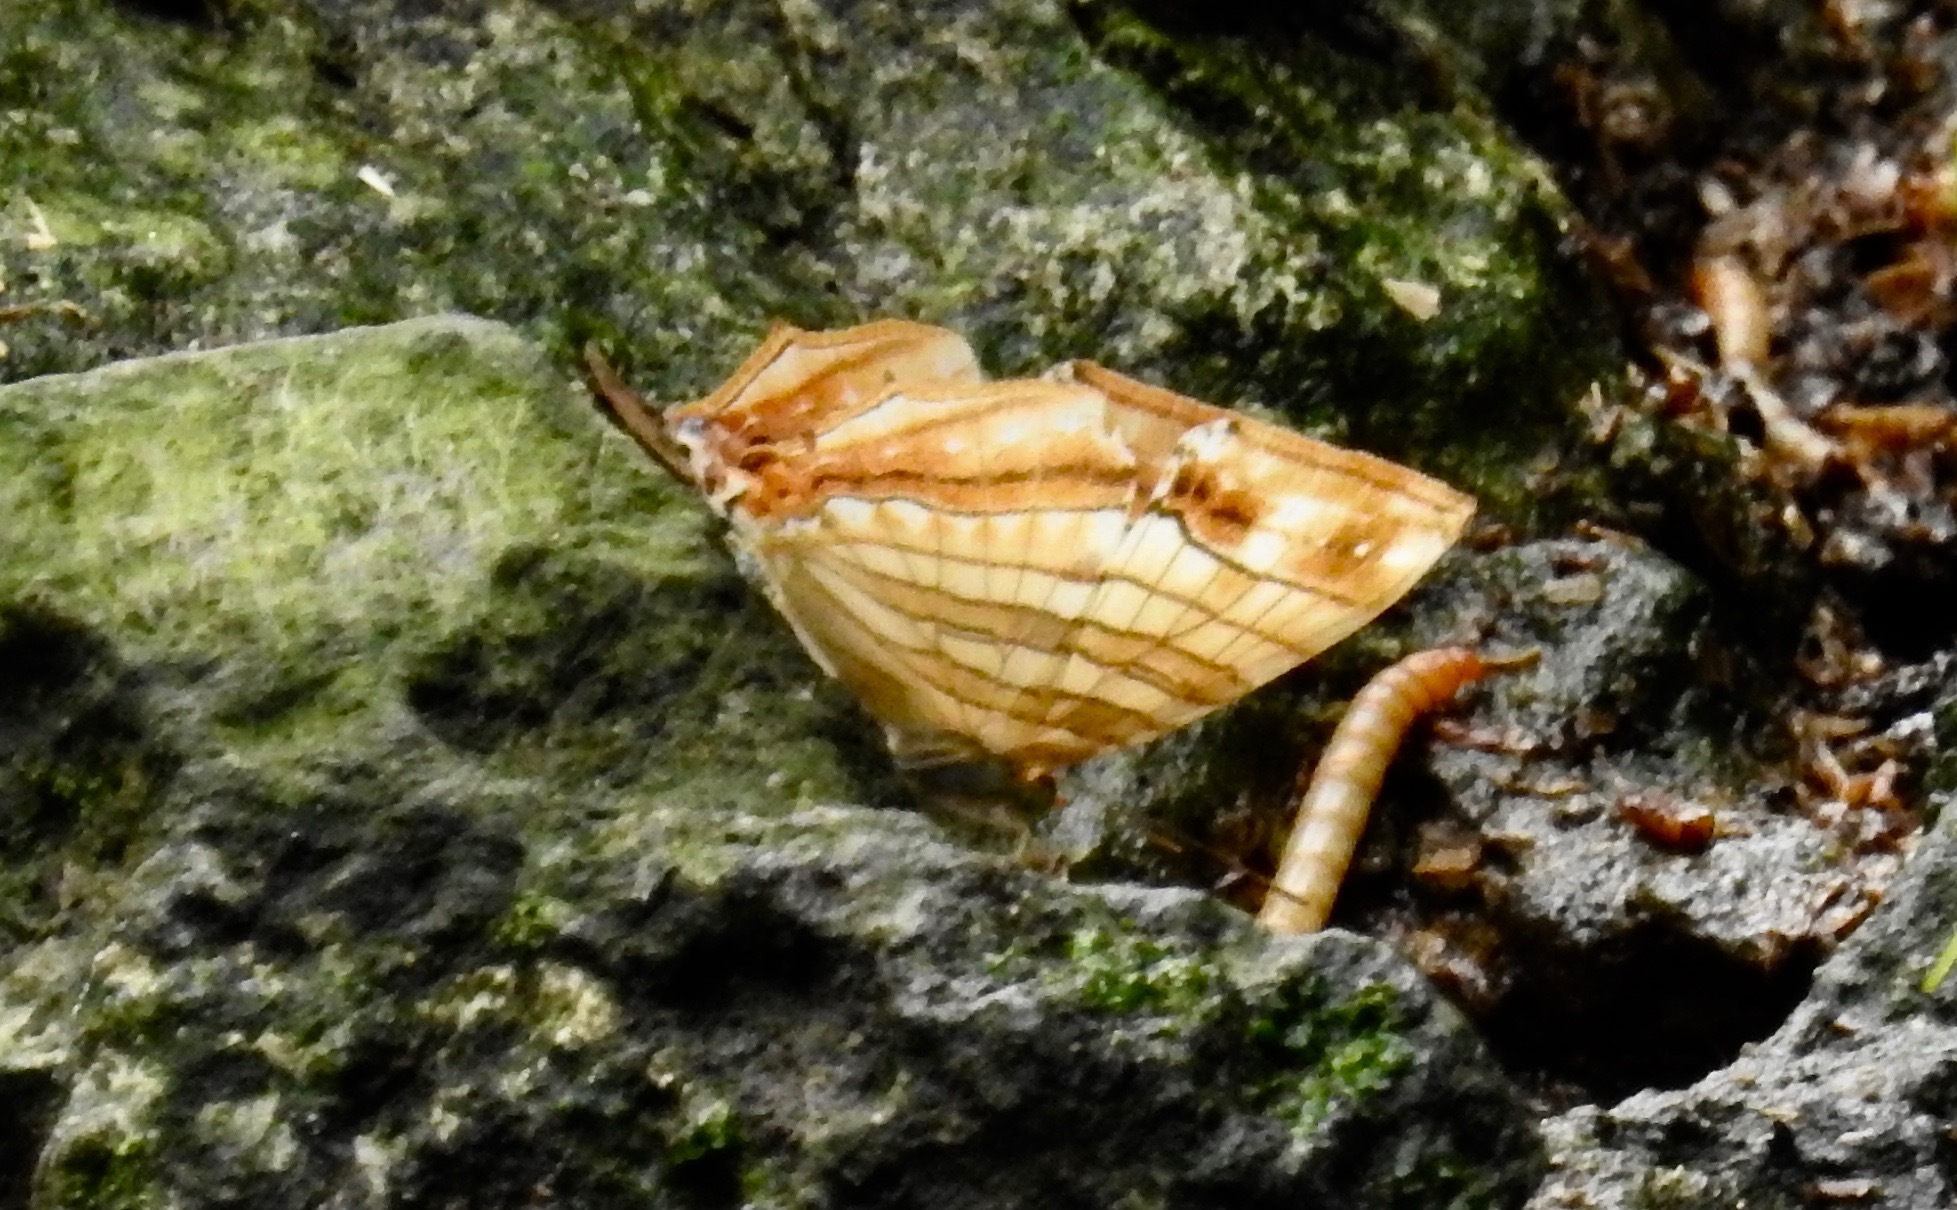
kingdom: Animalia
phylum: Arthropoda
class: Insecta
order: Lepidoptera
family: Nymphalidae
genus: Chersonesia
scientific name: Chersonesia risa
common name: Common maplet
